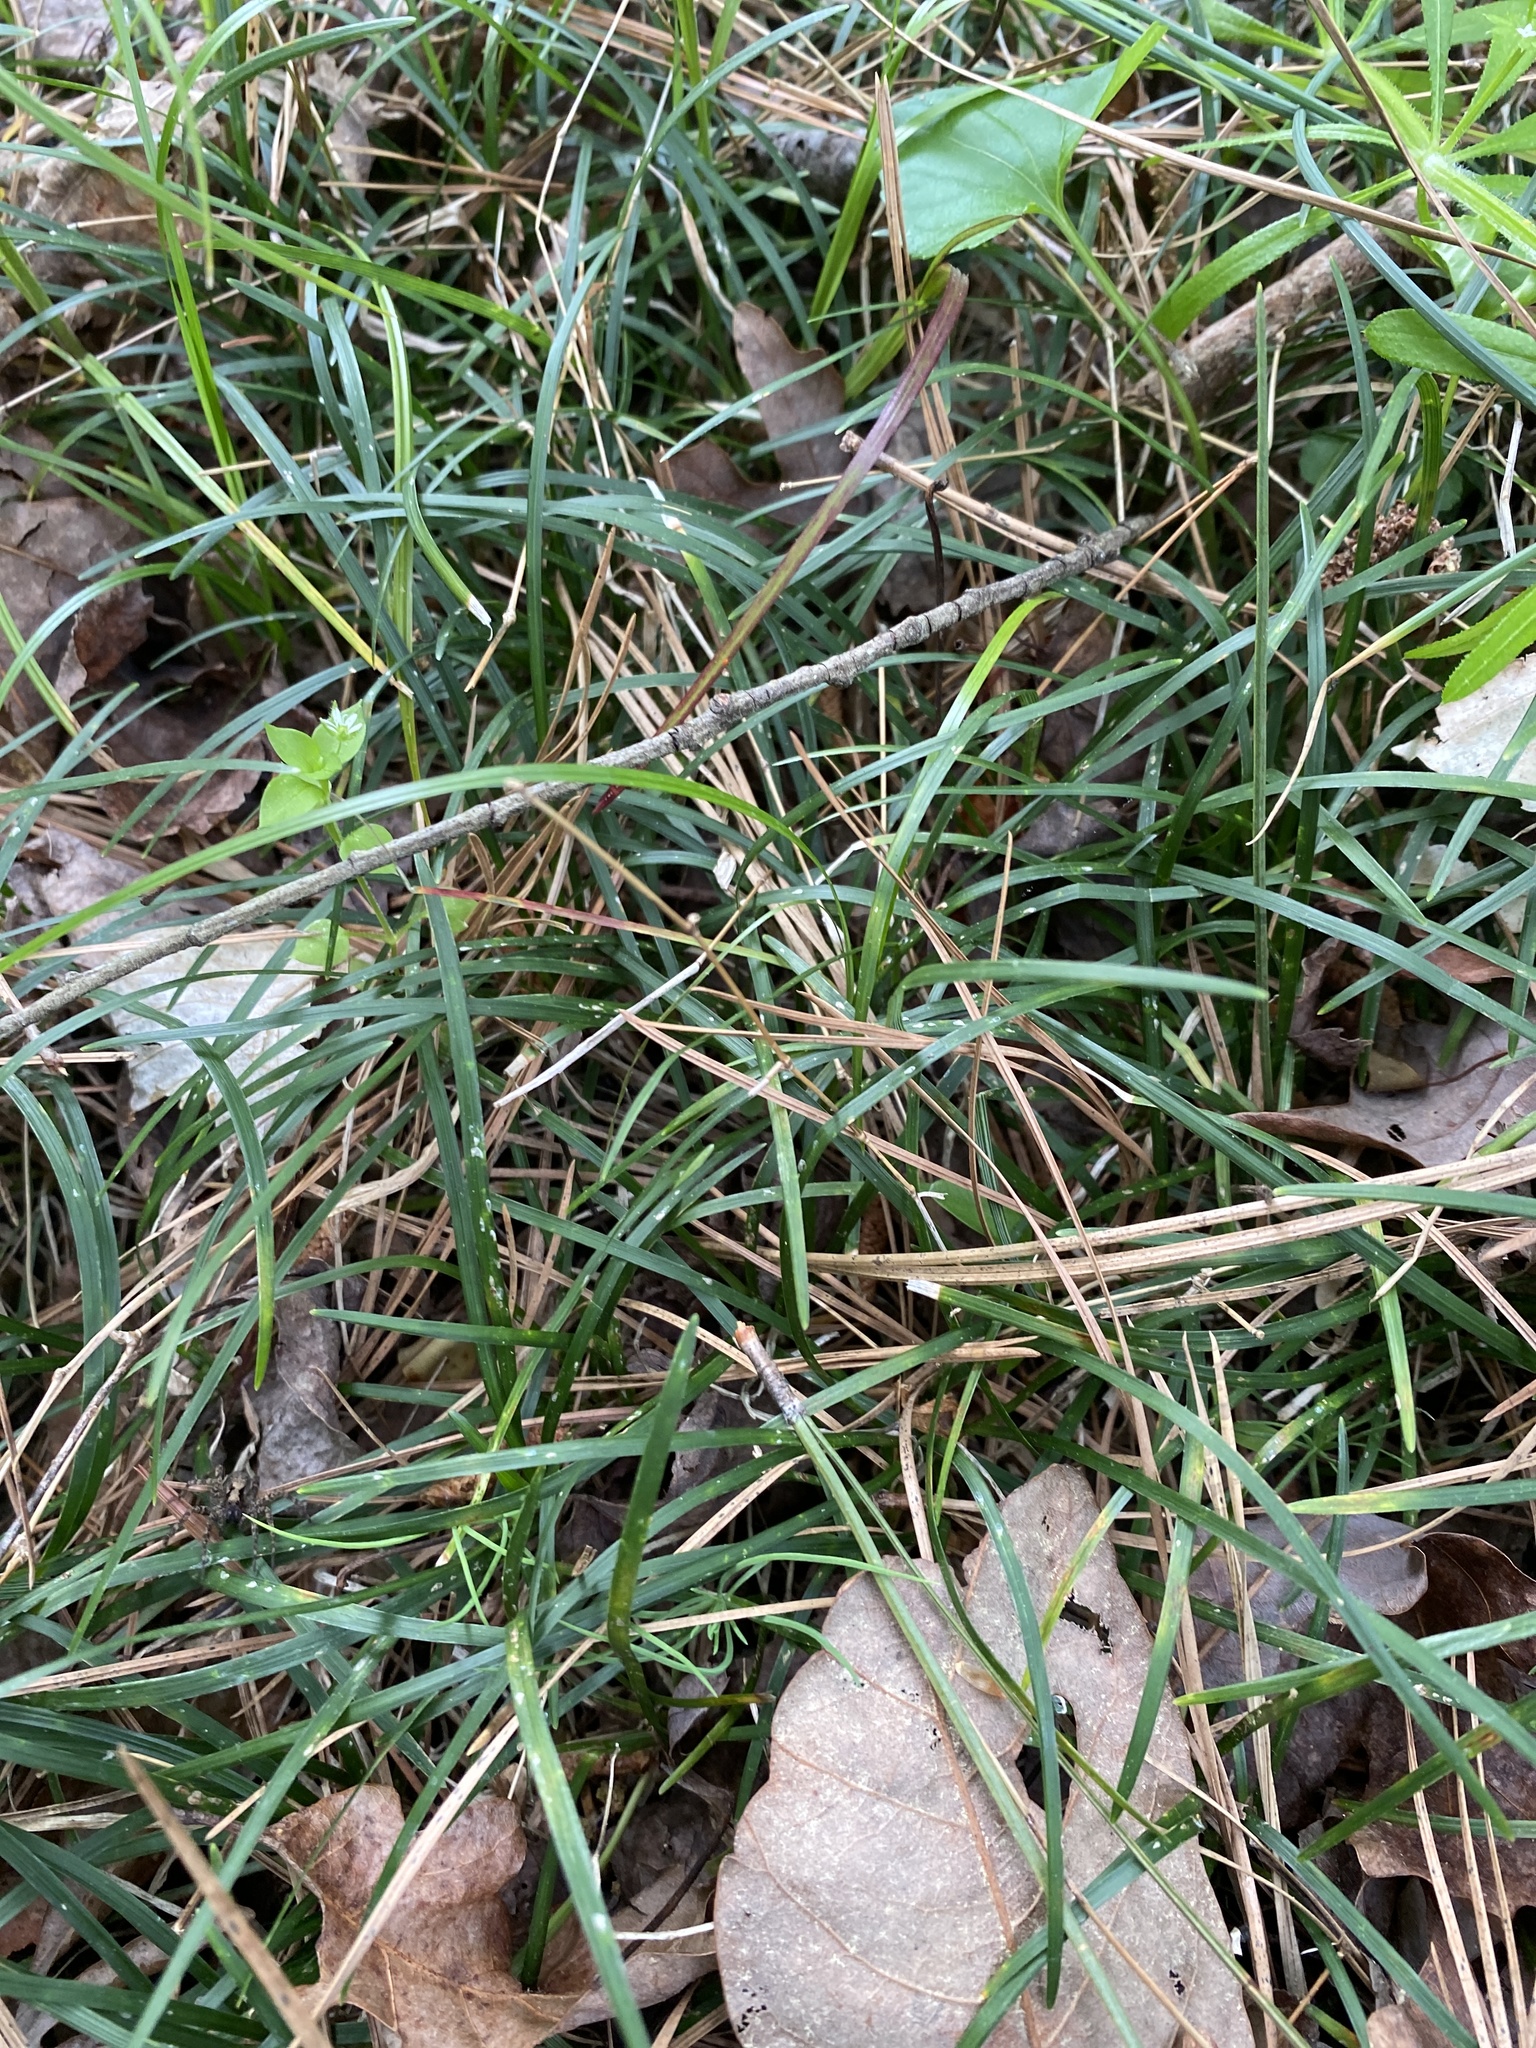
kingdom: Plantae
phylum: Tracheophyta
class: Liliopsida
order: Asparagales
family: Asparagaceae
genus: Ophiopogon
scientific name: Ophiopogon japonicus
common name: Dwarf lilyturf
